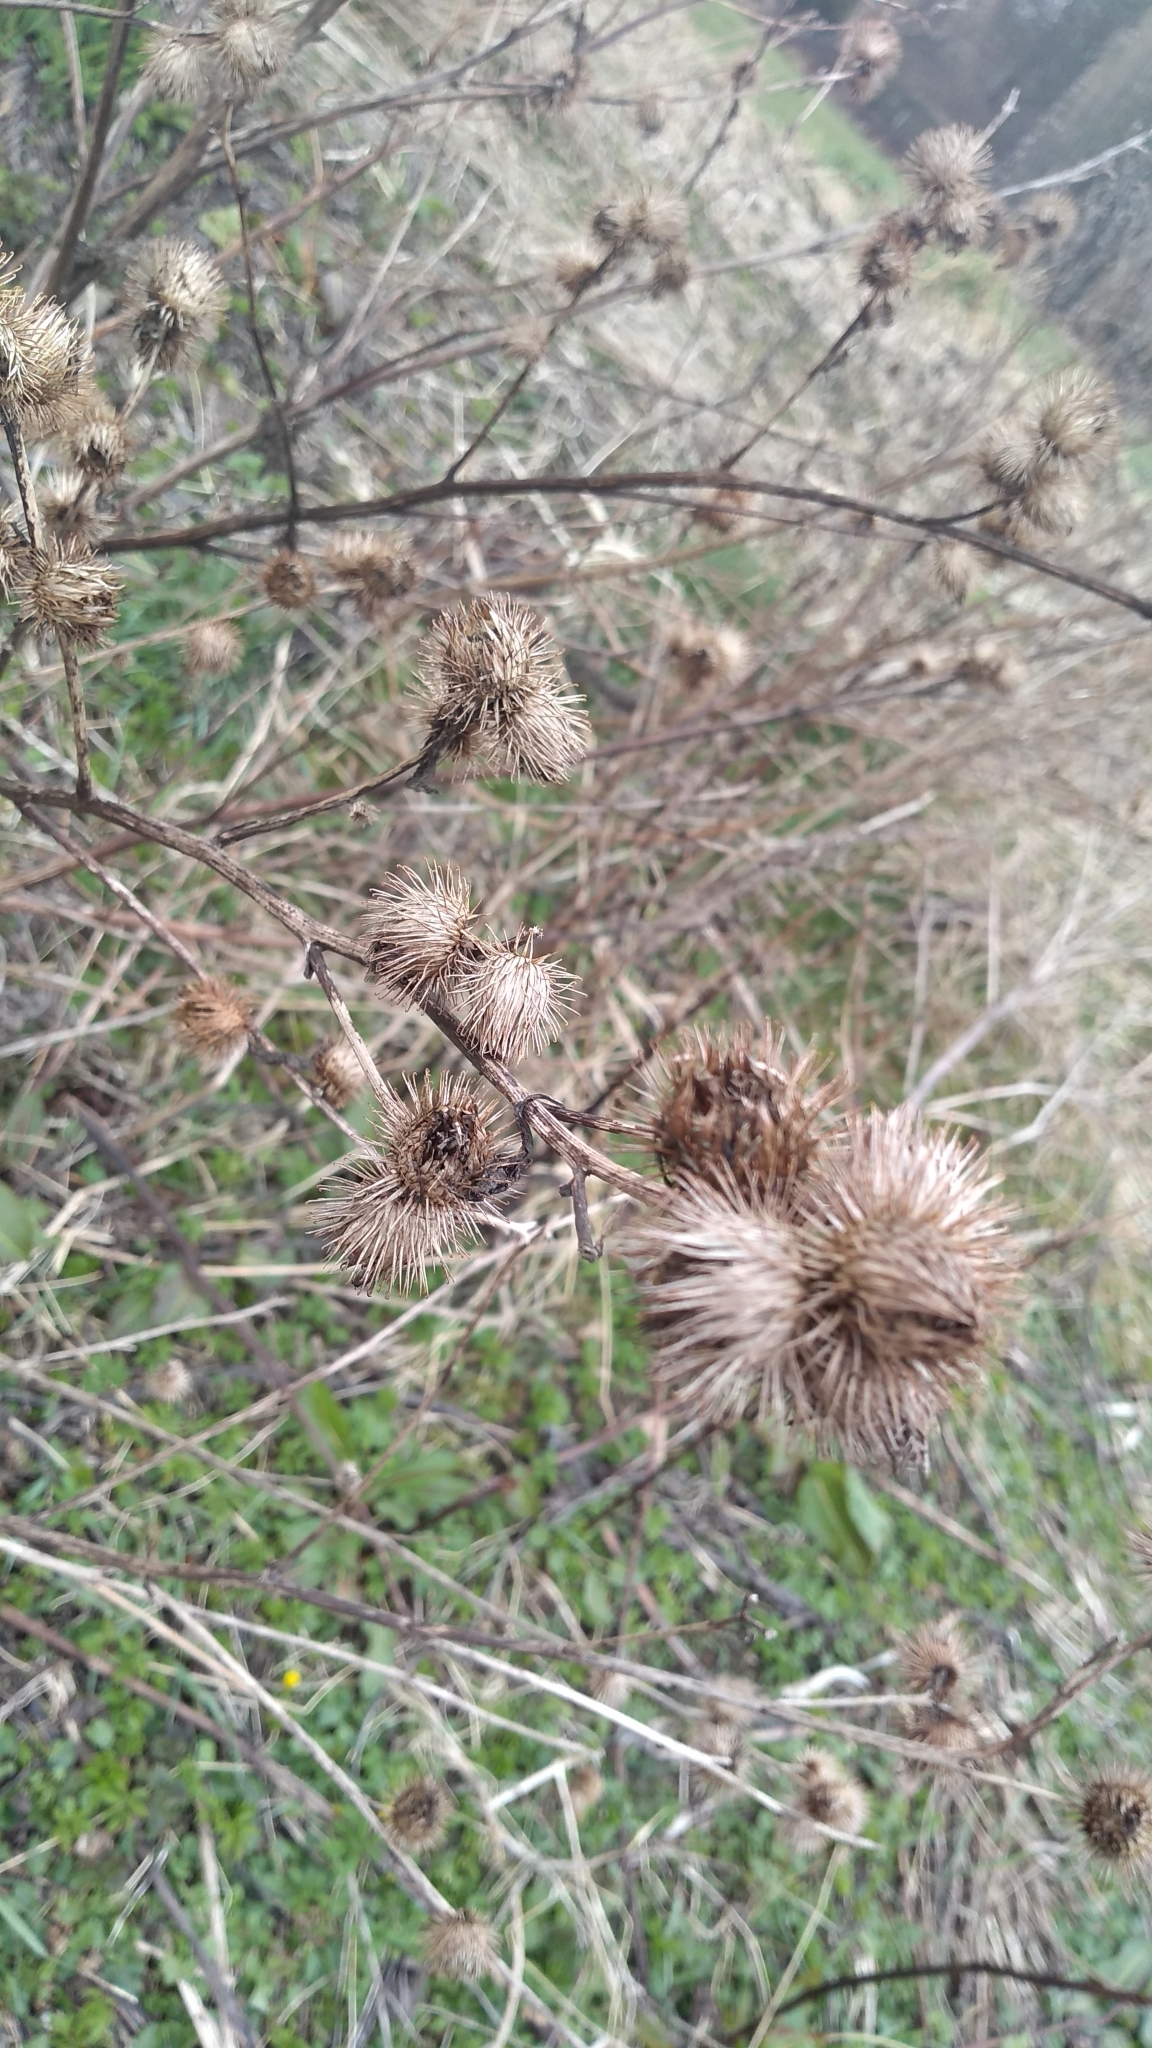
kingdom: Plantae
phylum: Tracheophyta
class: Magnoliopsida
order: Asterales
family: Asteraceae
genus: Arctium
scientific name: Arctium minus
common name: Lesser burdock
